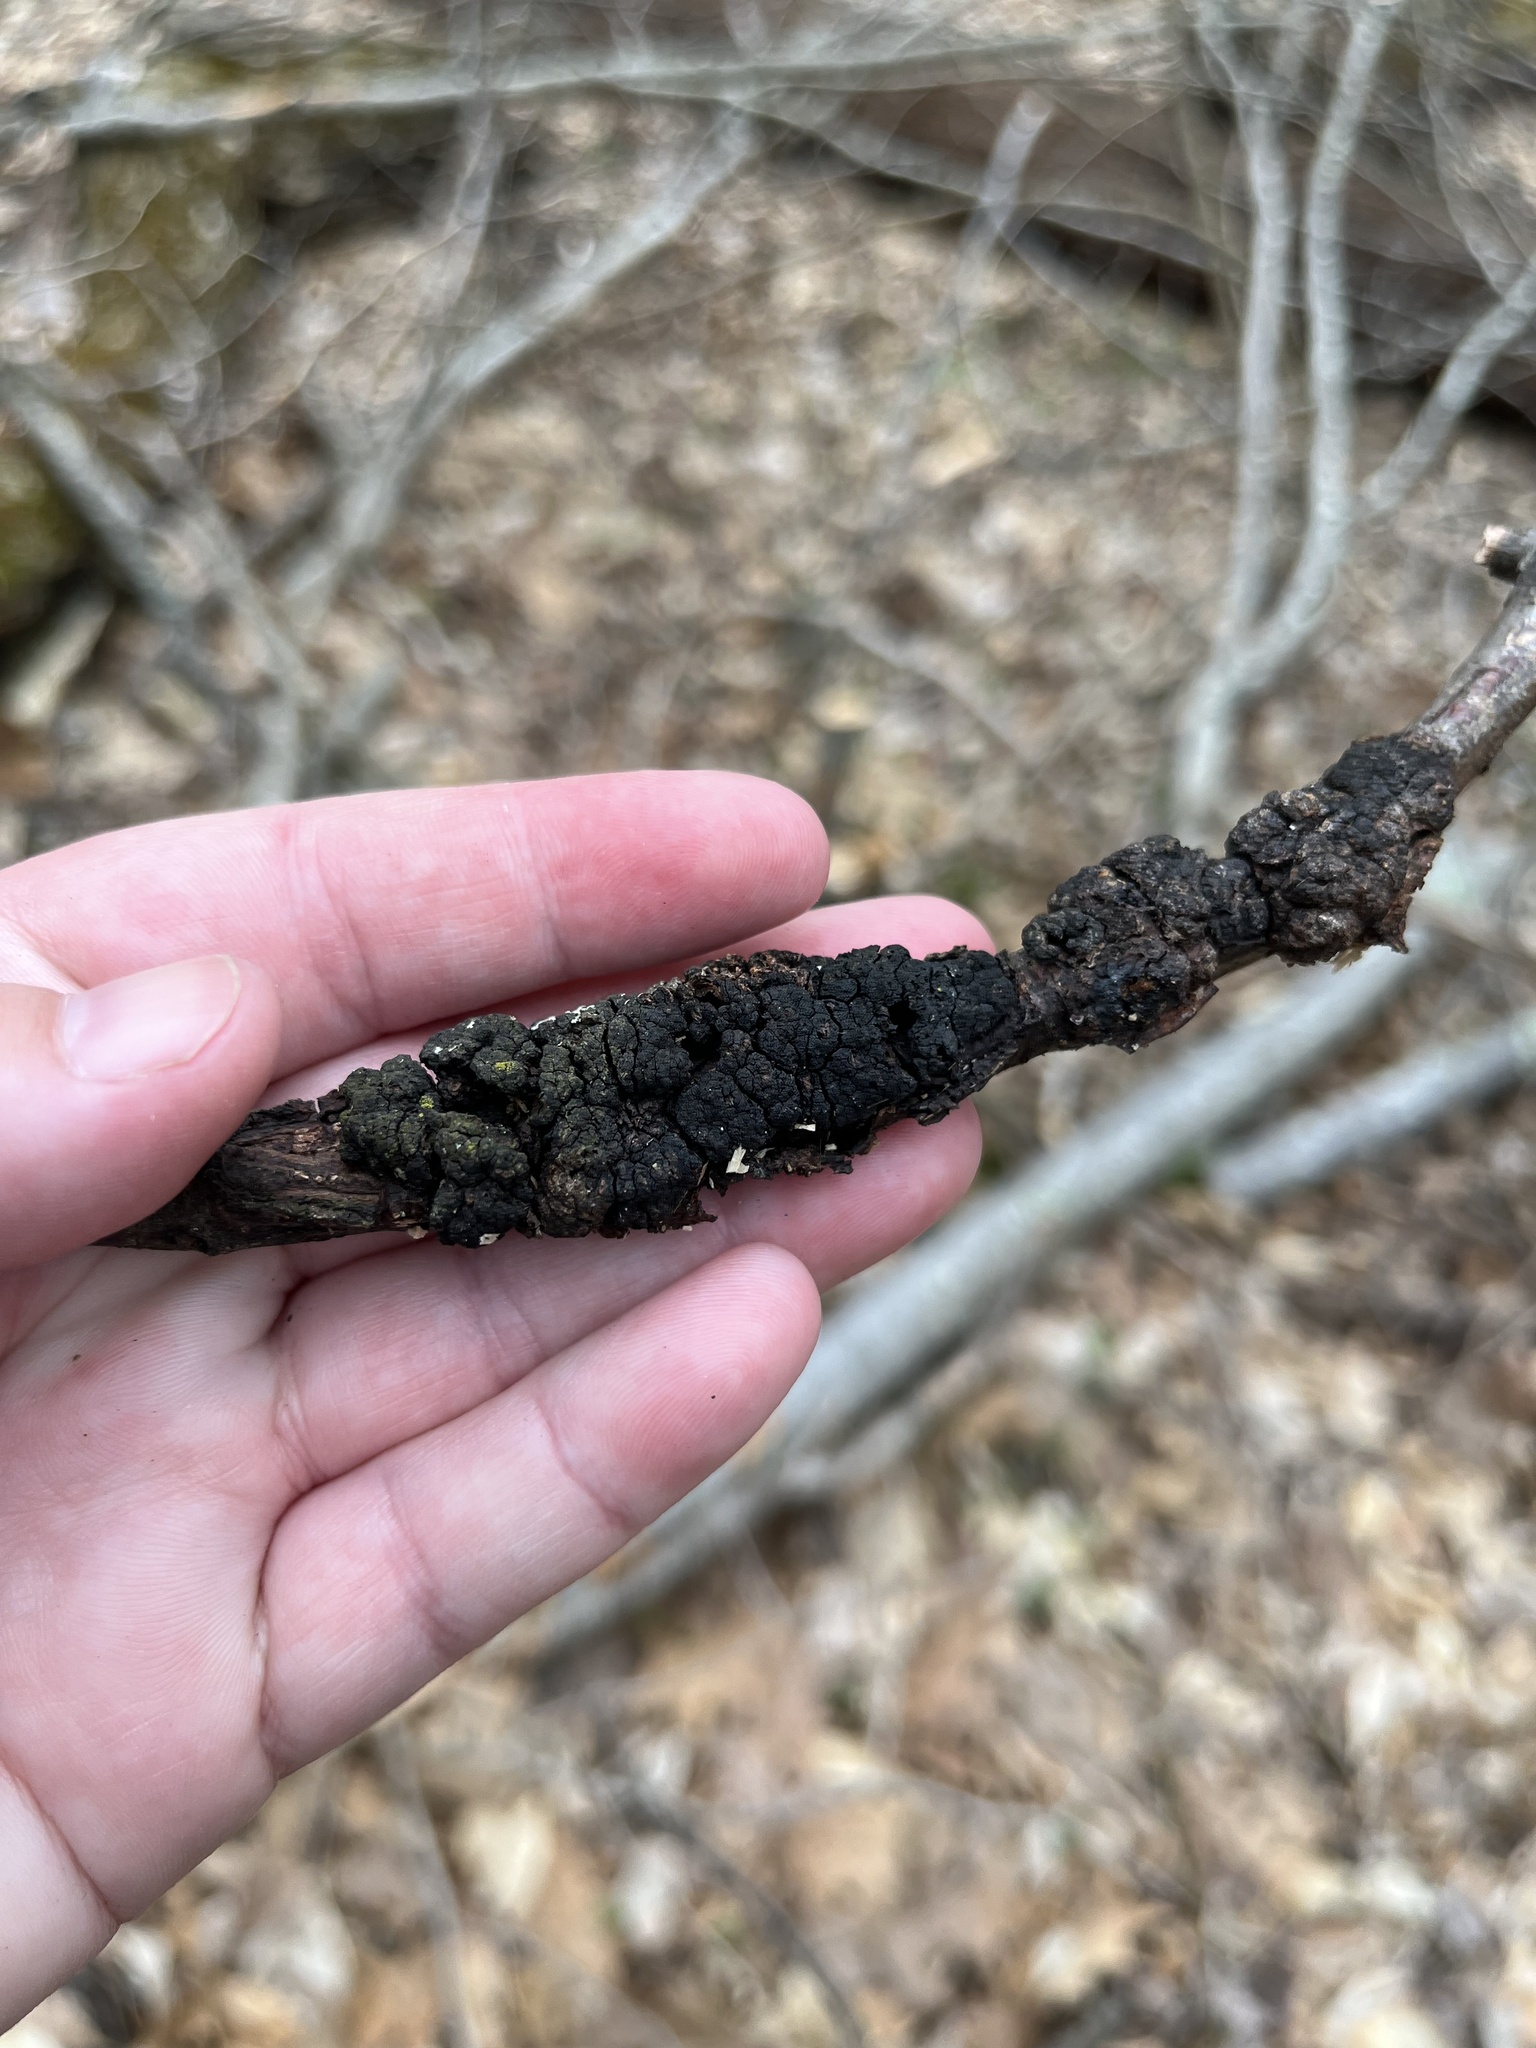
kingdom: Fungi
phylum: Ascomycota
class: Dothideomycetes
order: Venturiales
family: Venturiaceae
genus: Apiosporina
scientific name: Apiosporina morbosa
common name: Black knot
